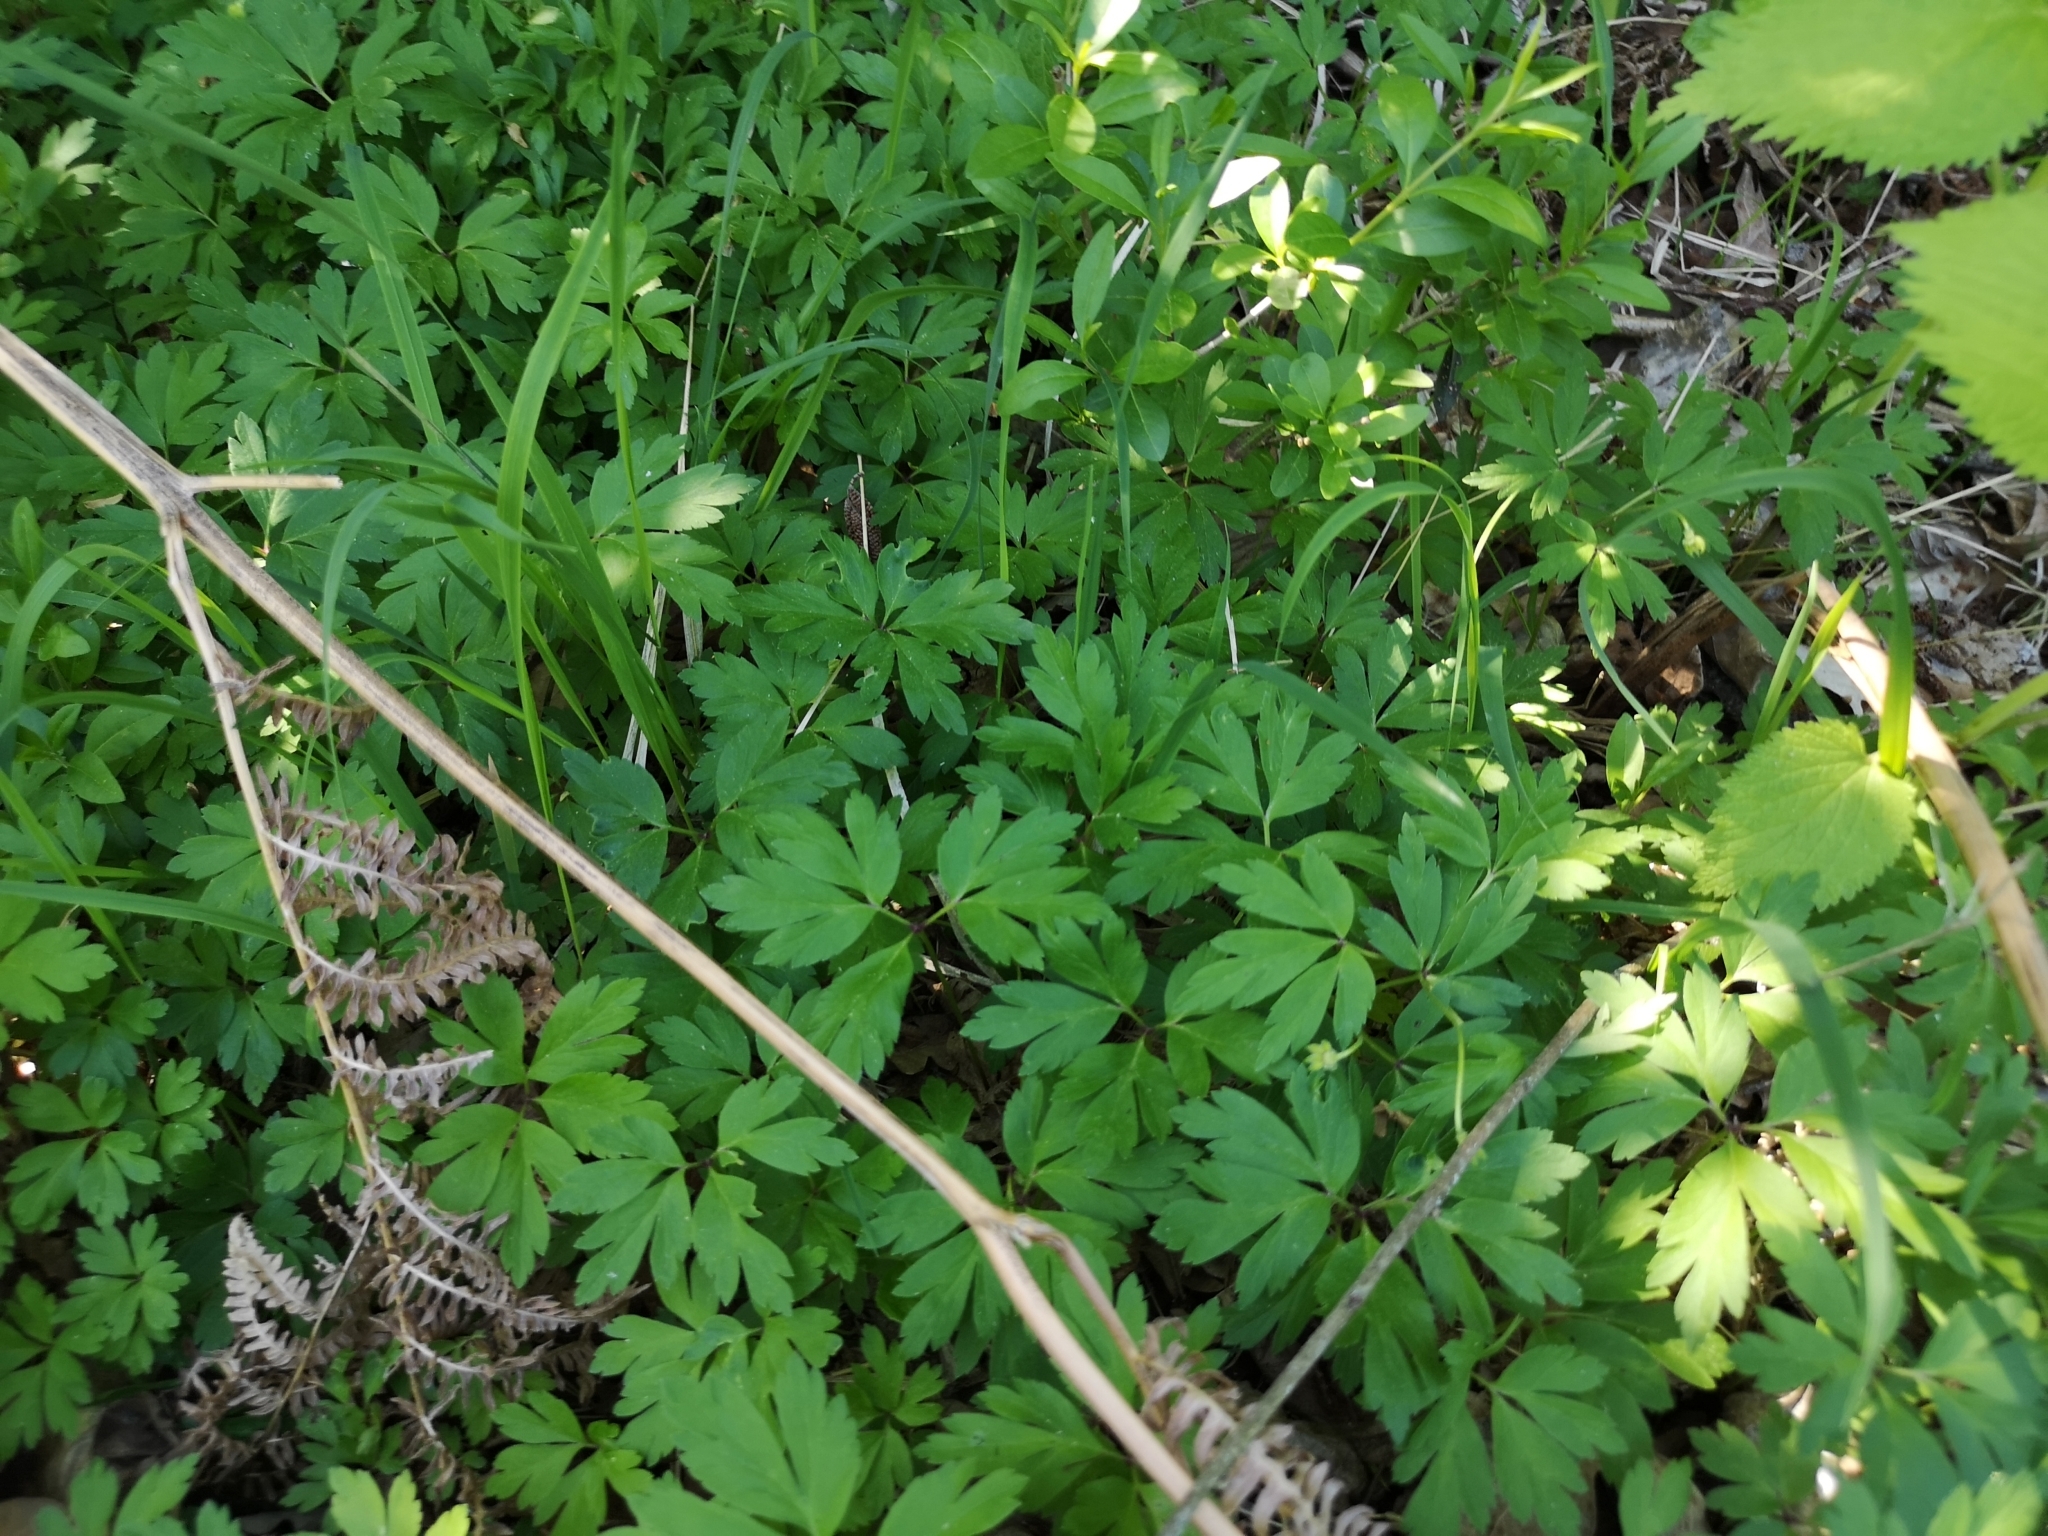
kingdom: Plantae
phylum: Tracheophyta
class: Magnoliopsida
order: Ranunculales
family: Ranunculaceae
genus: Anemone
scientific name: Anemone nemorosa
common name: Wood anemone
